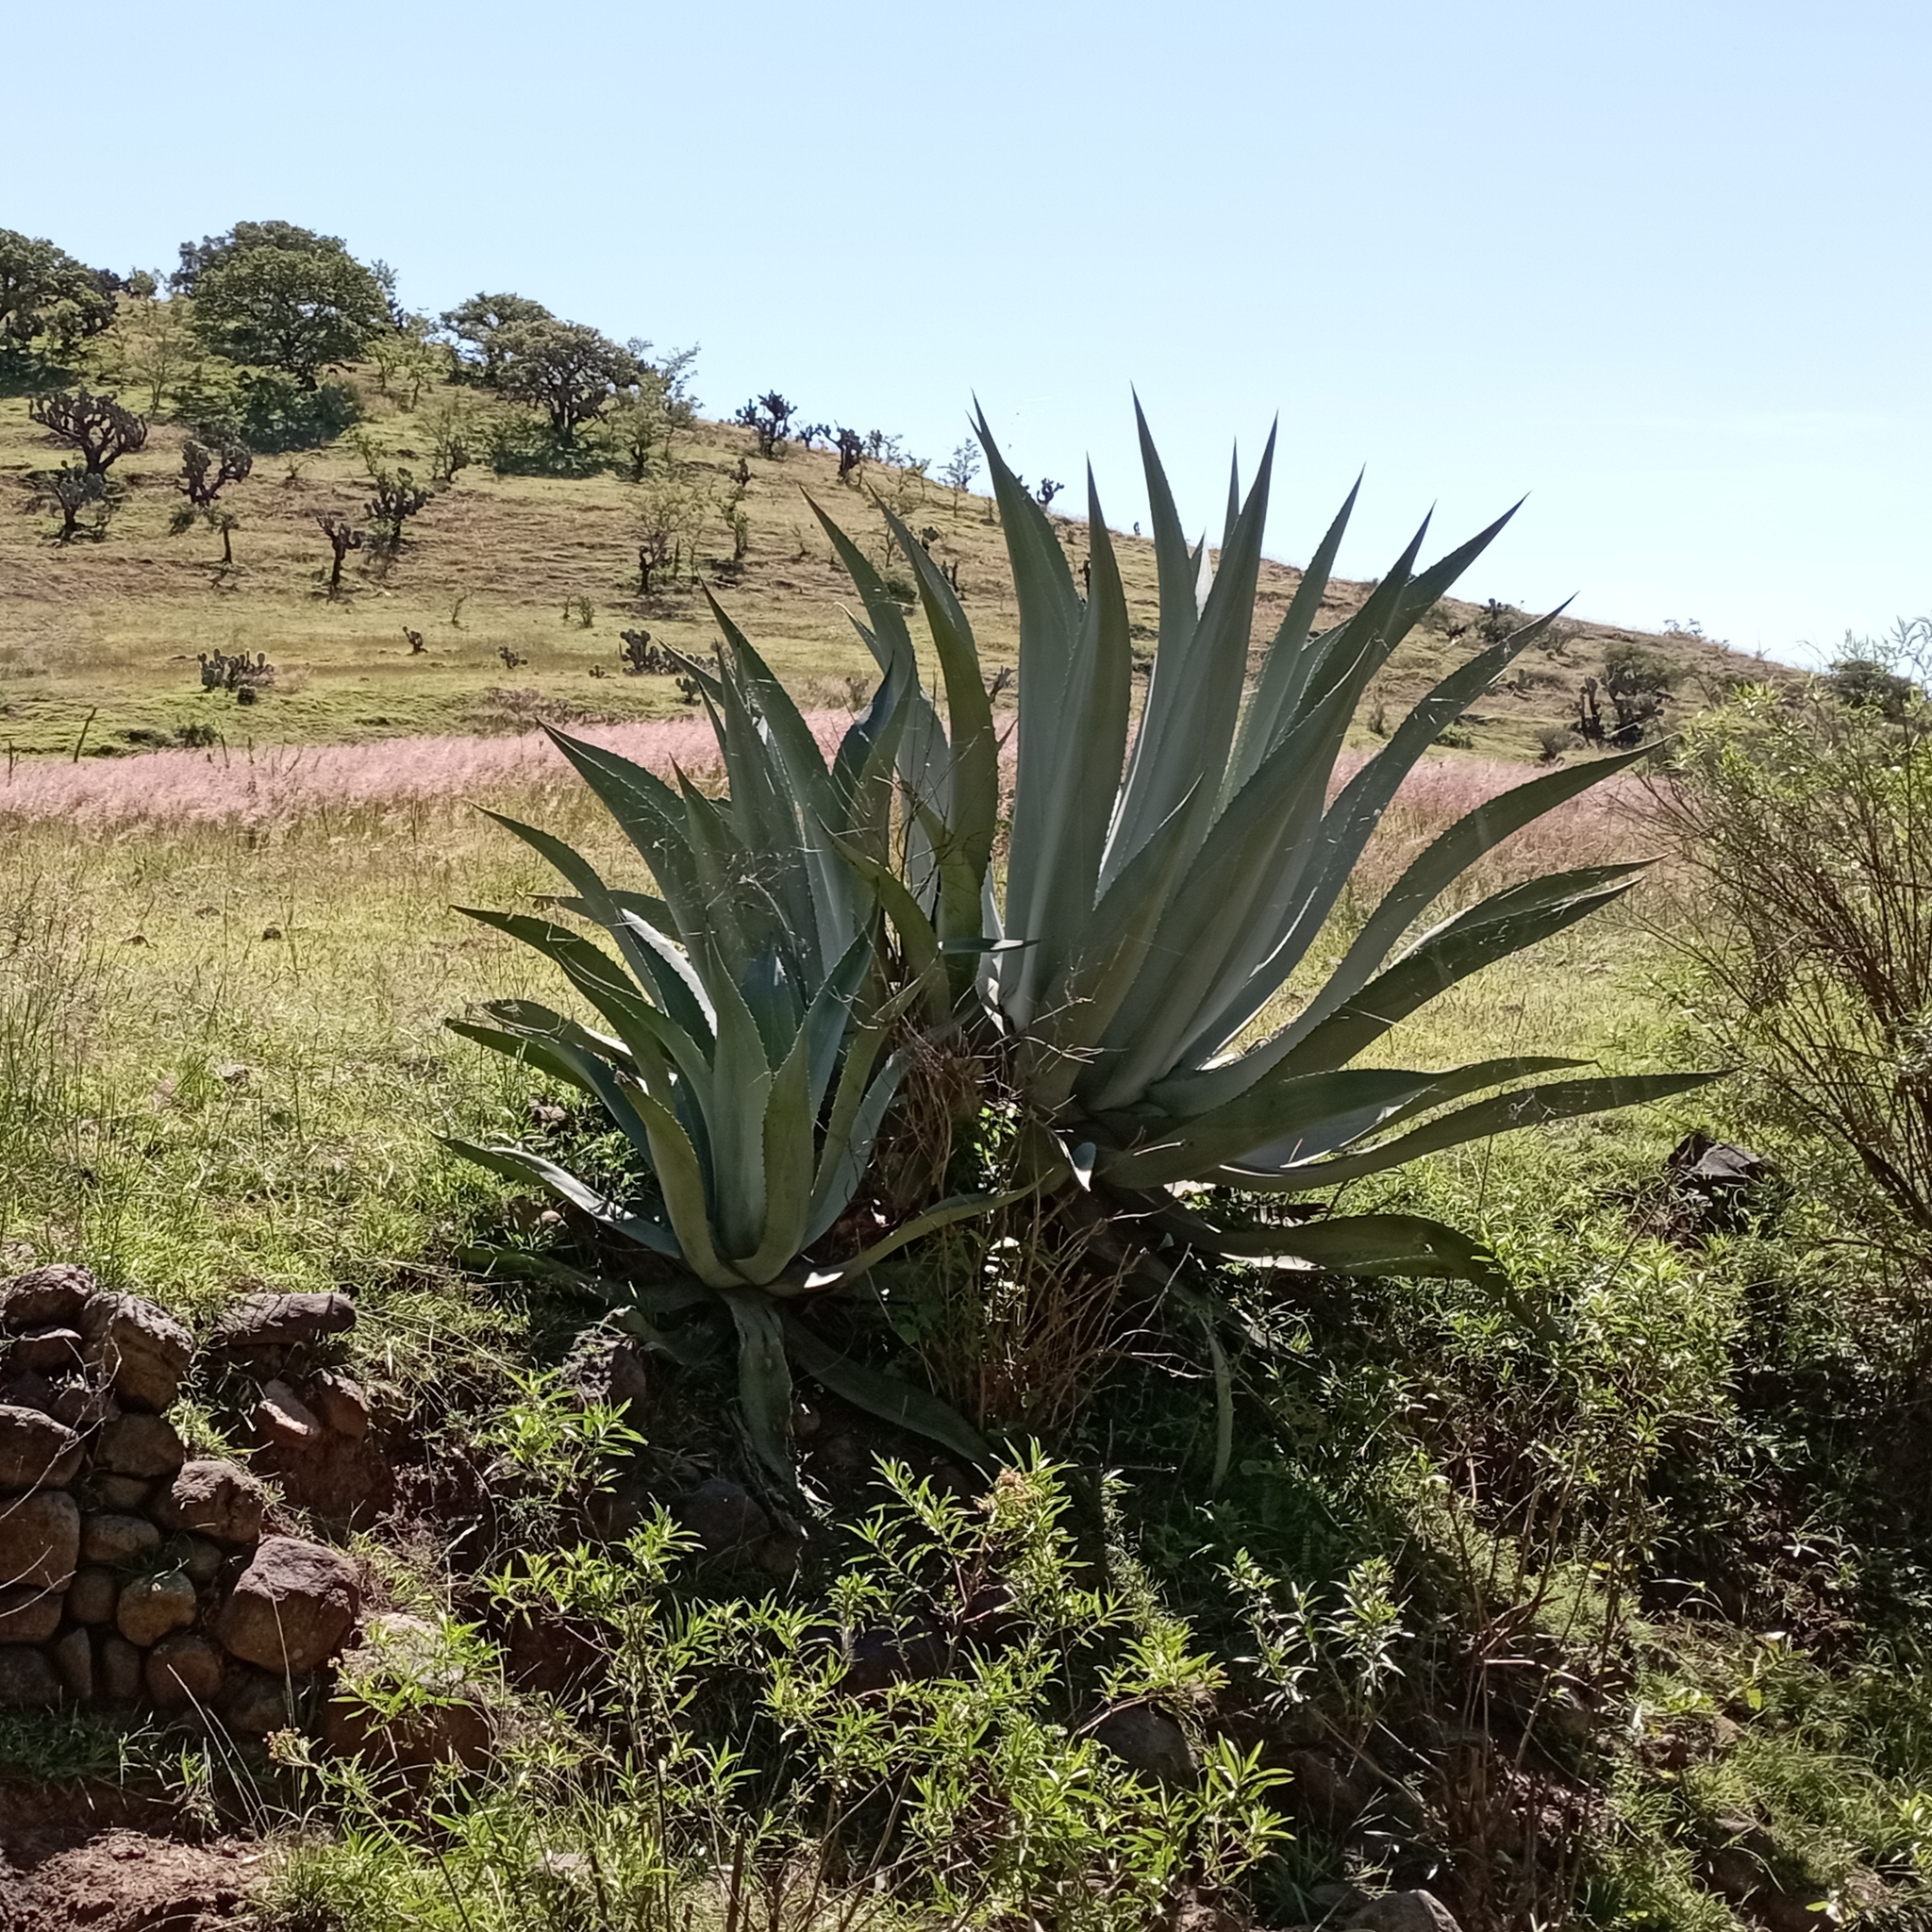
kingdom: Plantae
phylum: Tracheophyta
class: Liliopsida
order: Asparagales
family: Asparagaceae
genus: Agave
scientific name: Agave americana
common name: Centuryplant
